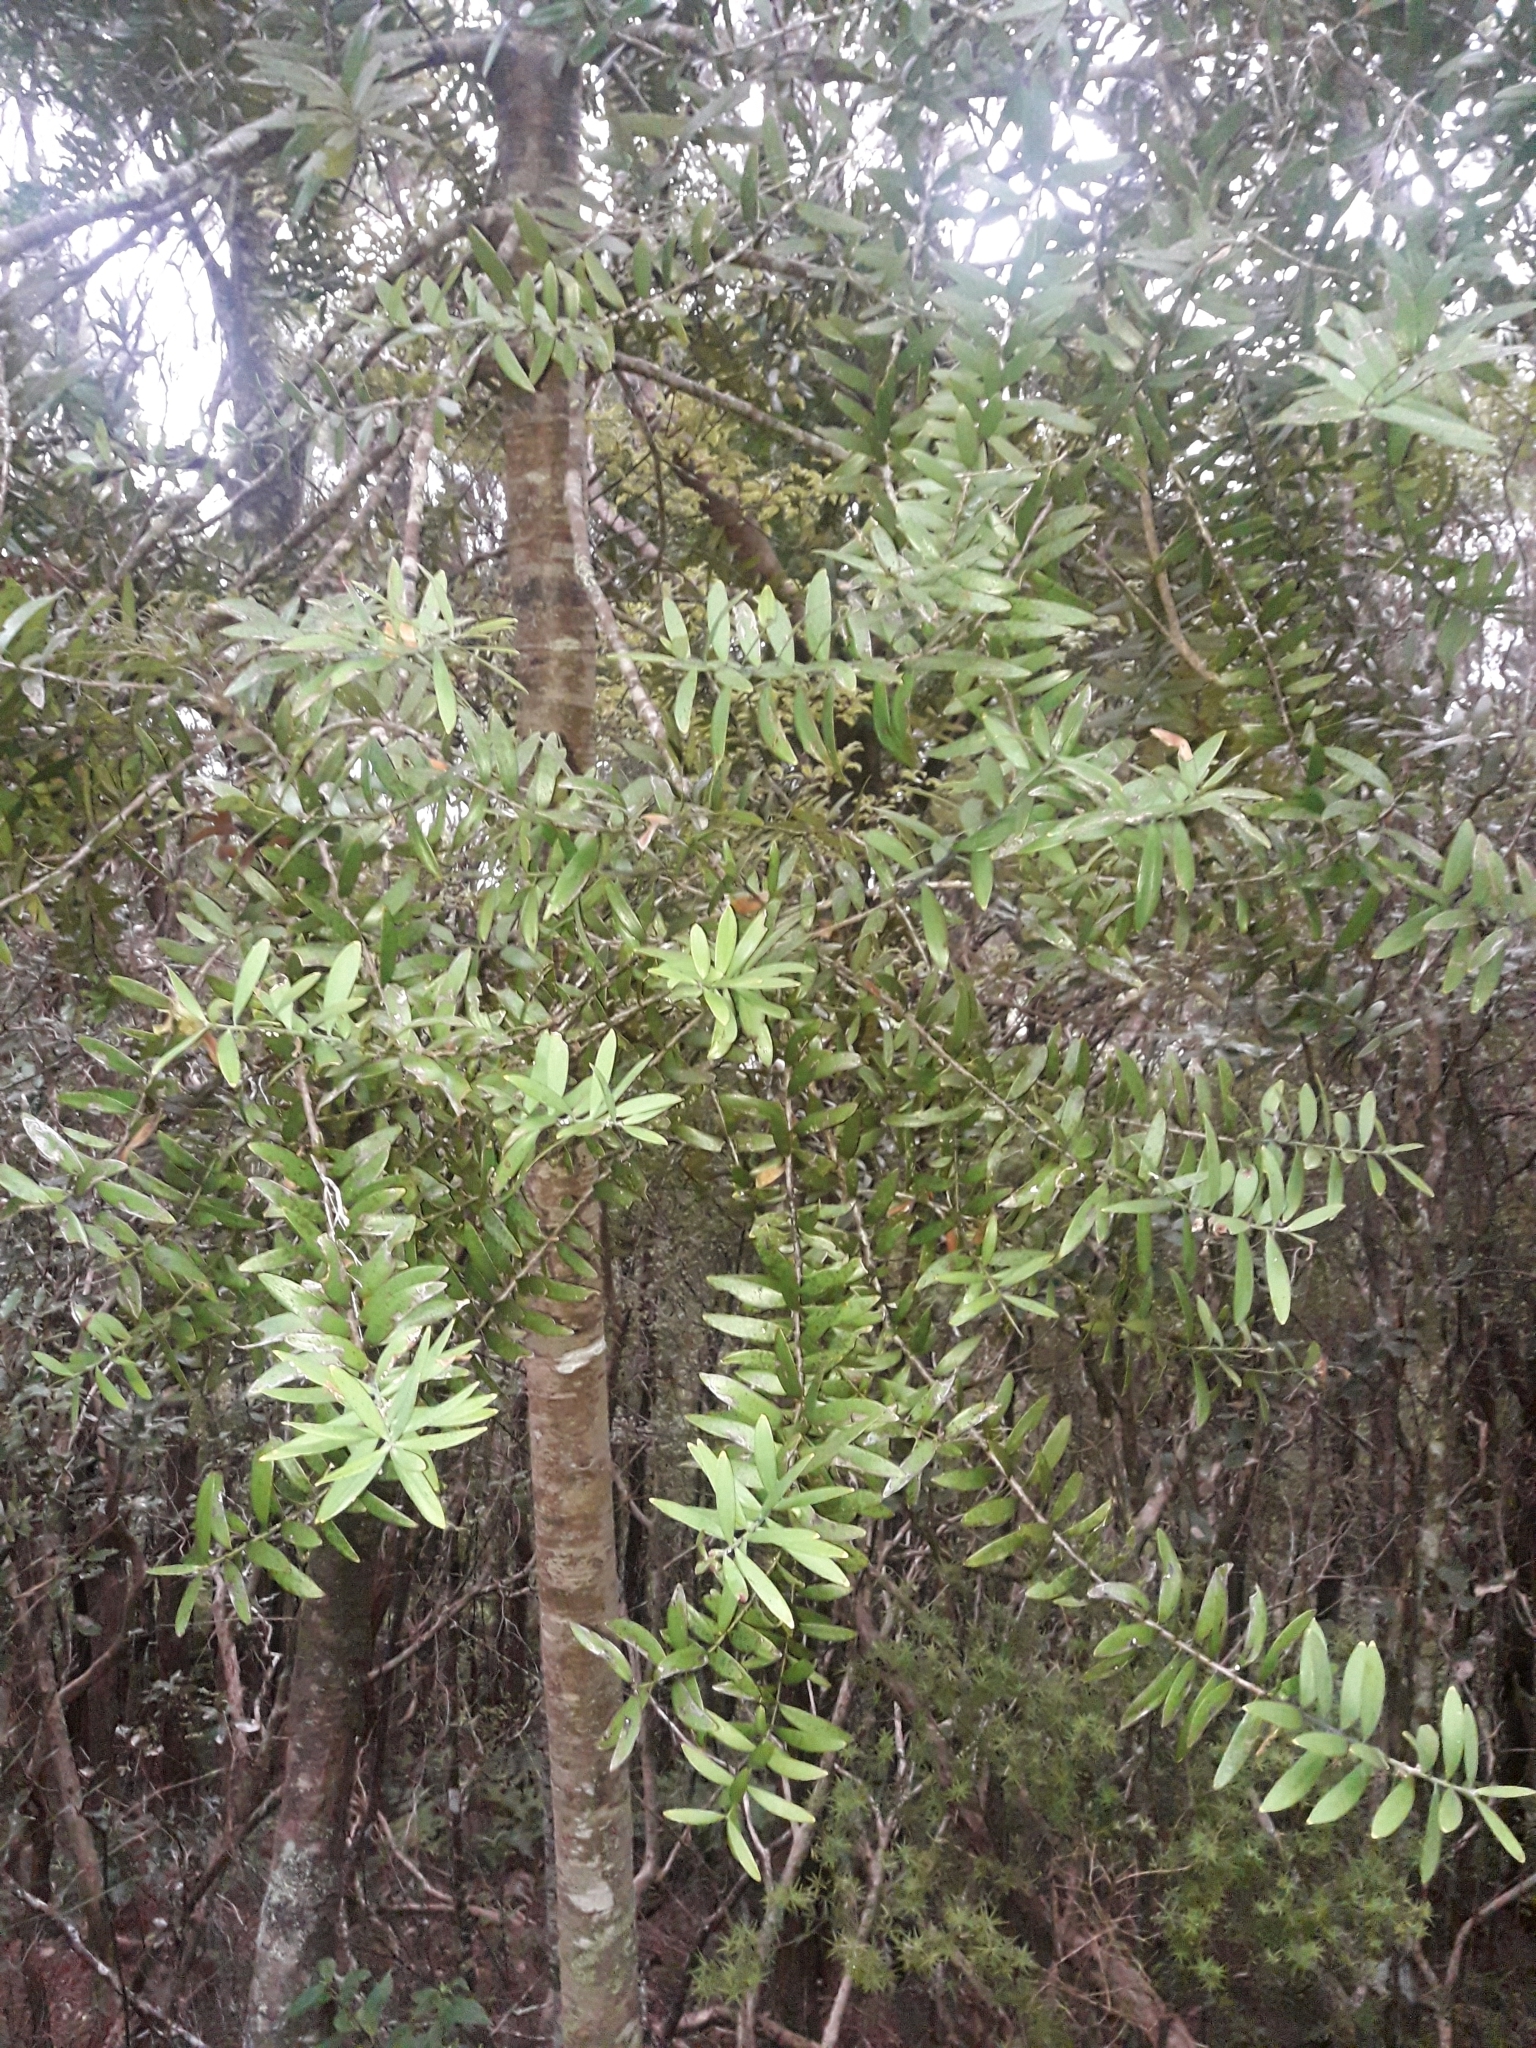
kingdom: Plantae
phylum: Tracheophyta
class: Pinopsida
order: Pinales
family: Araucariaceae
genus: Agathis
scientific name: Agathis australis
